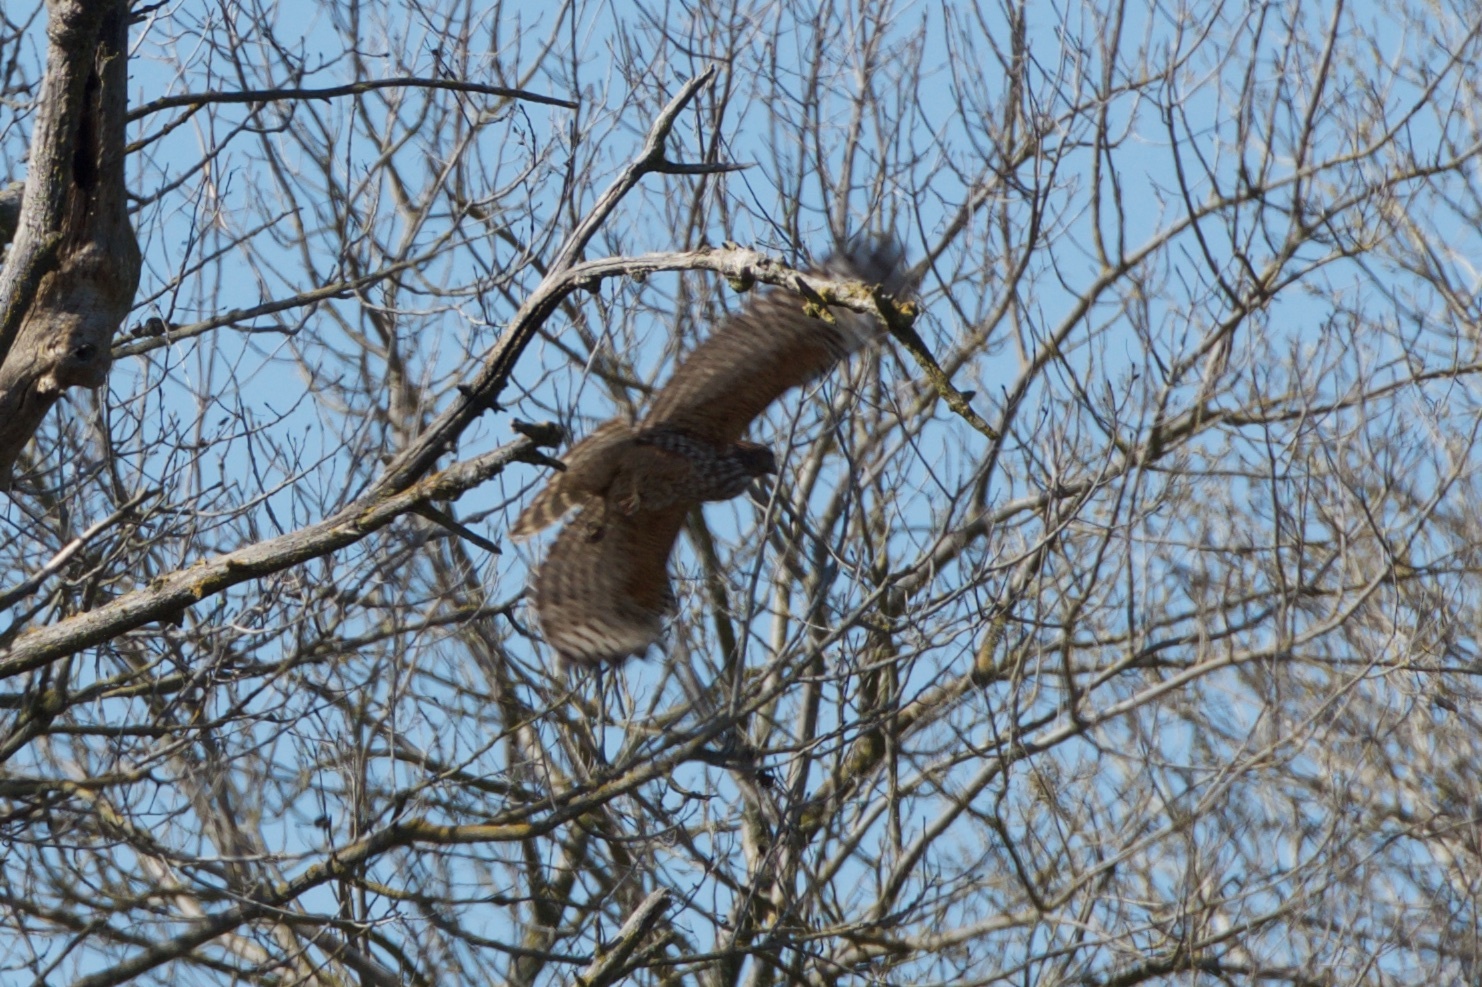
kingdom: Animalia
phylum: Chordata
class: Aves
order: Accipitriformes
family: Accipitridae
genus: Buteo
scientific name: Buteo lineatus
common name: Red-shouldered hawk
